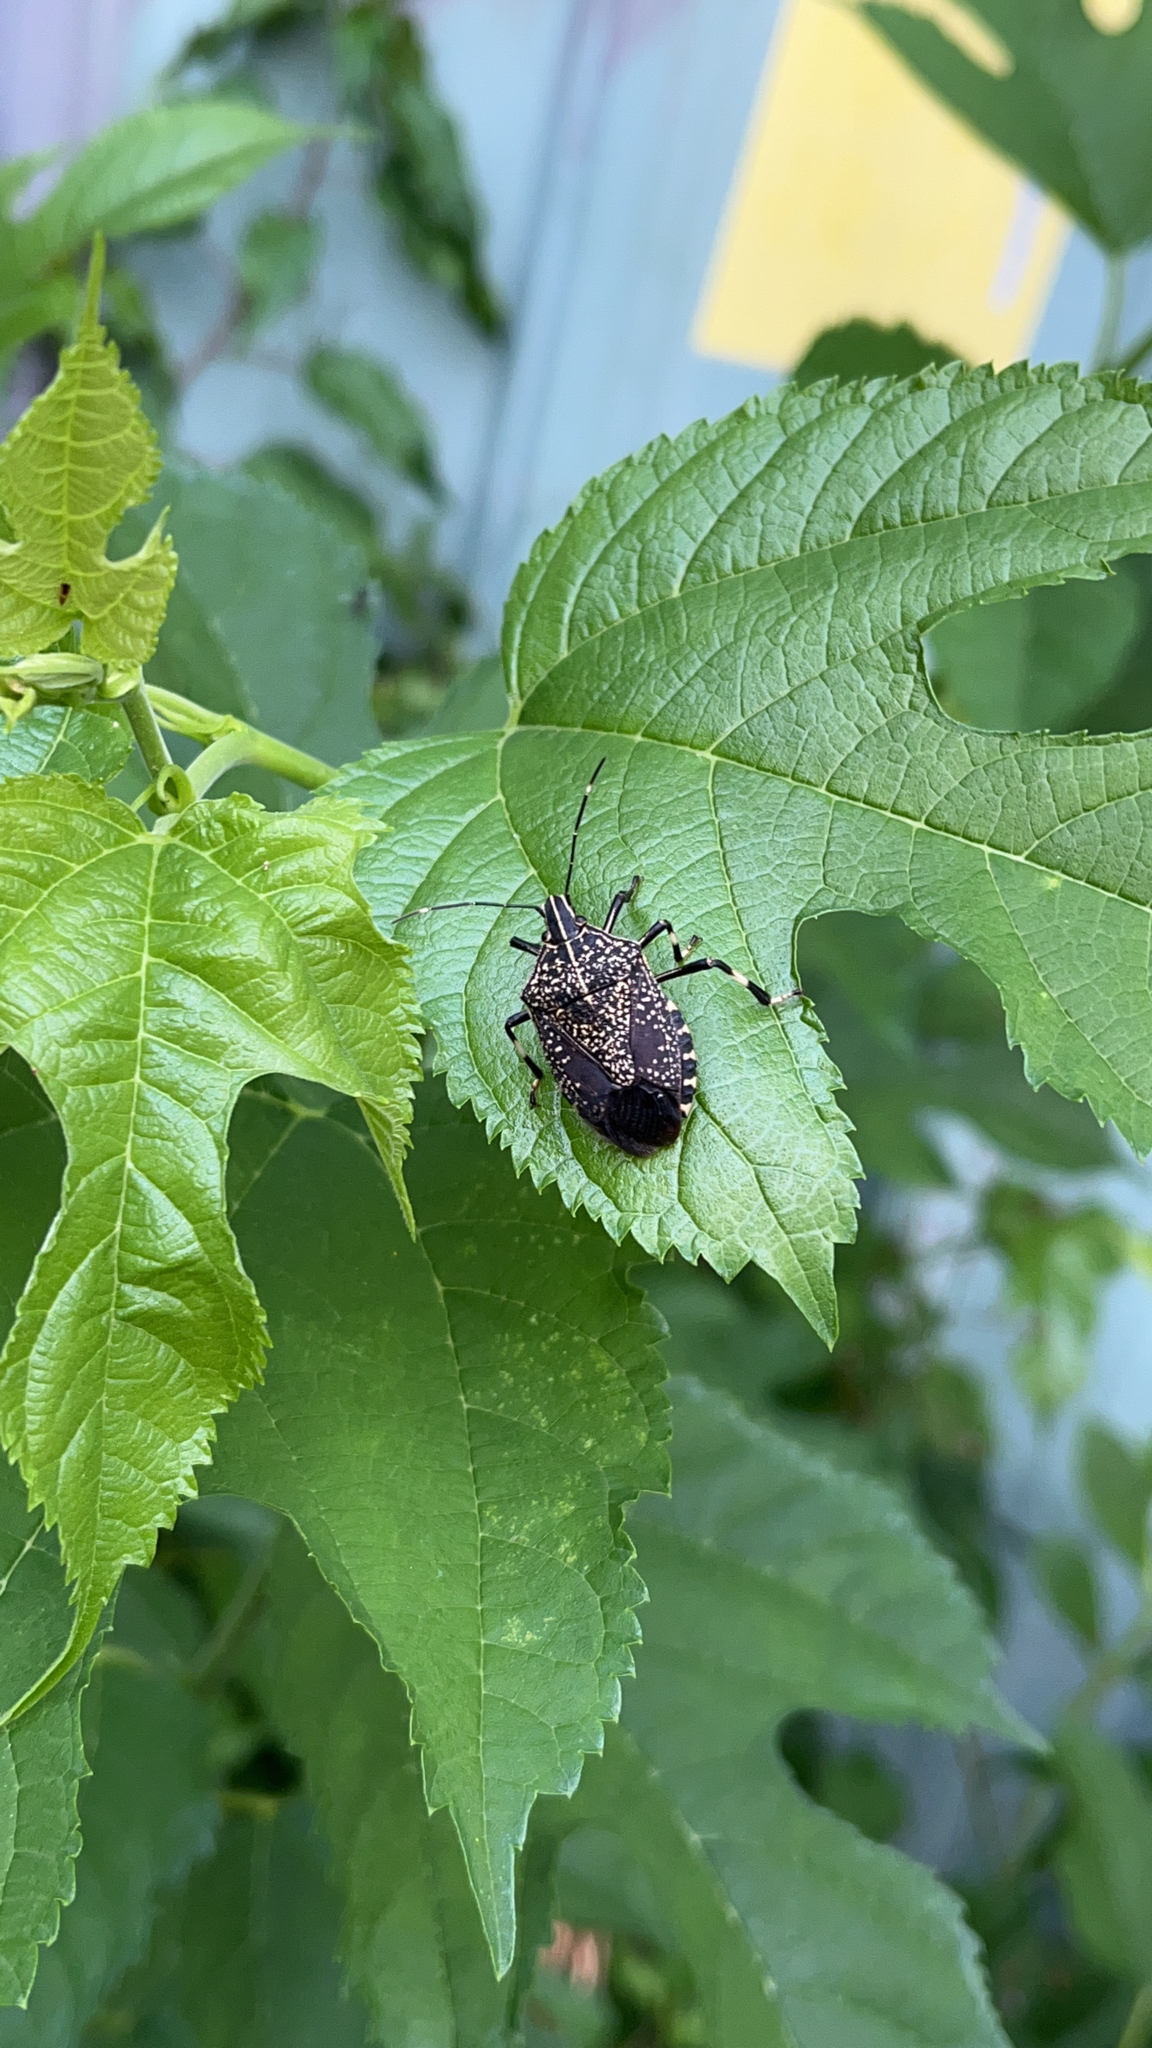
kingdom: Animalia
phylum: Arthropoda
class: Insecta
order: Hemiptera
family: Pentatomidae
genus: Erthesina
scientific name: Erthesina fullo
